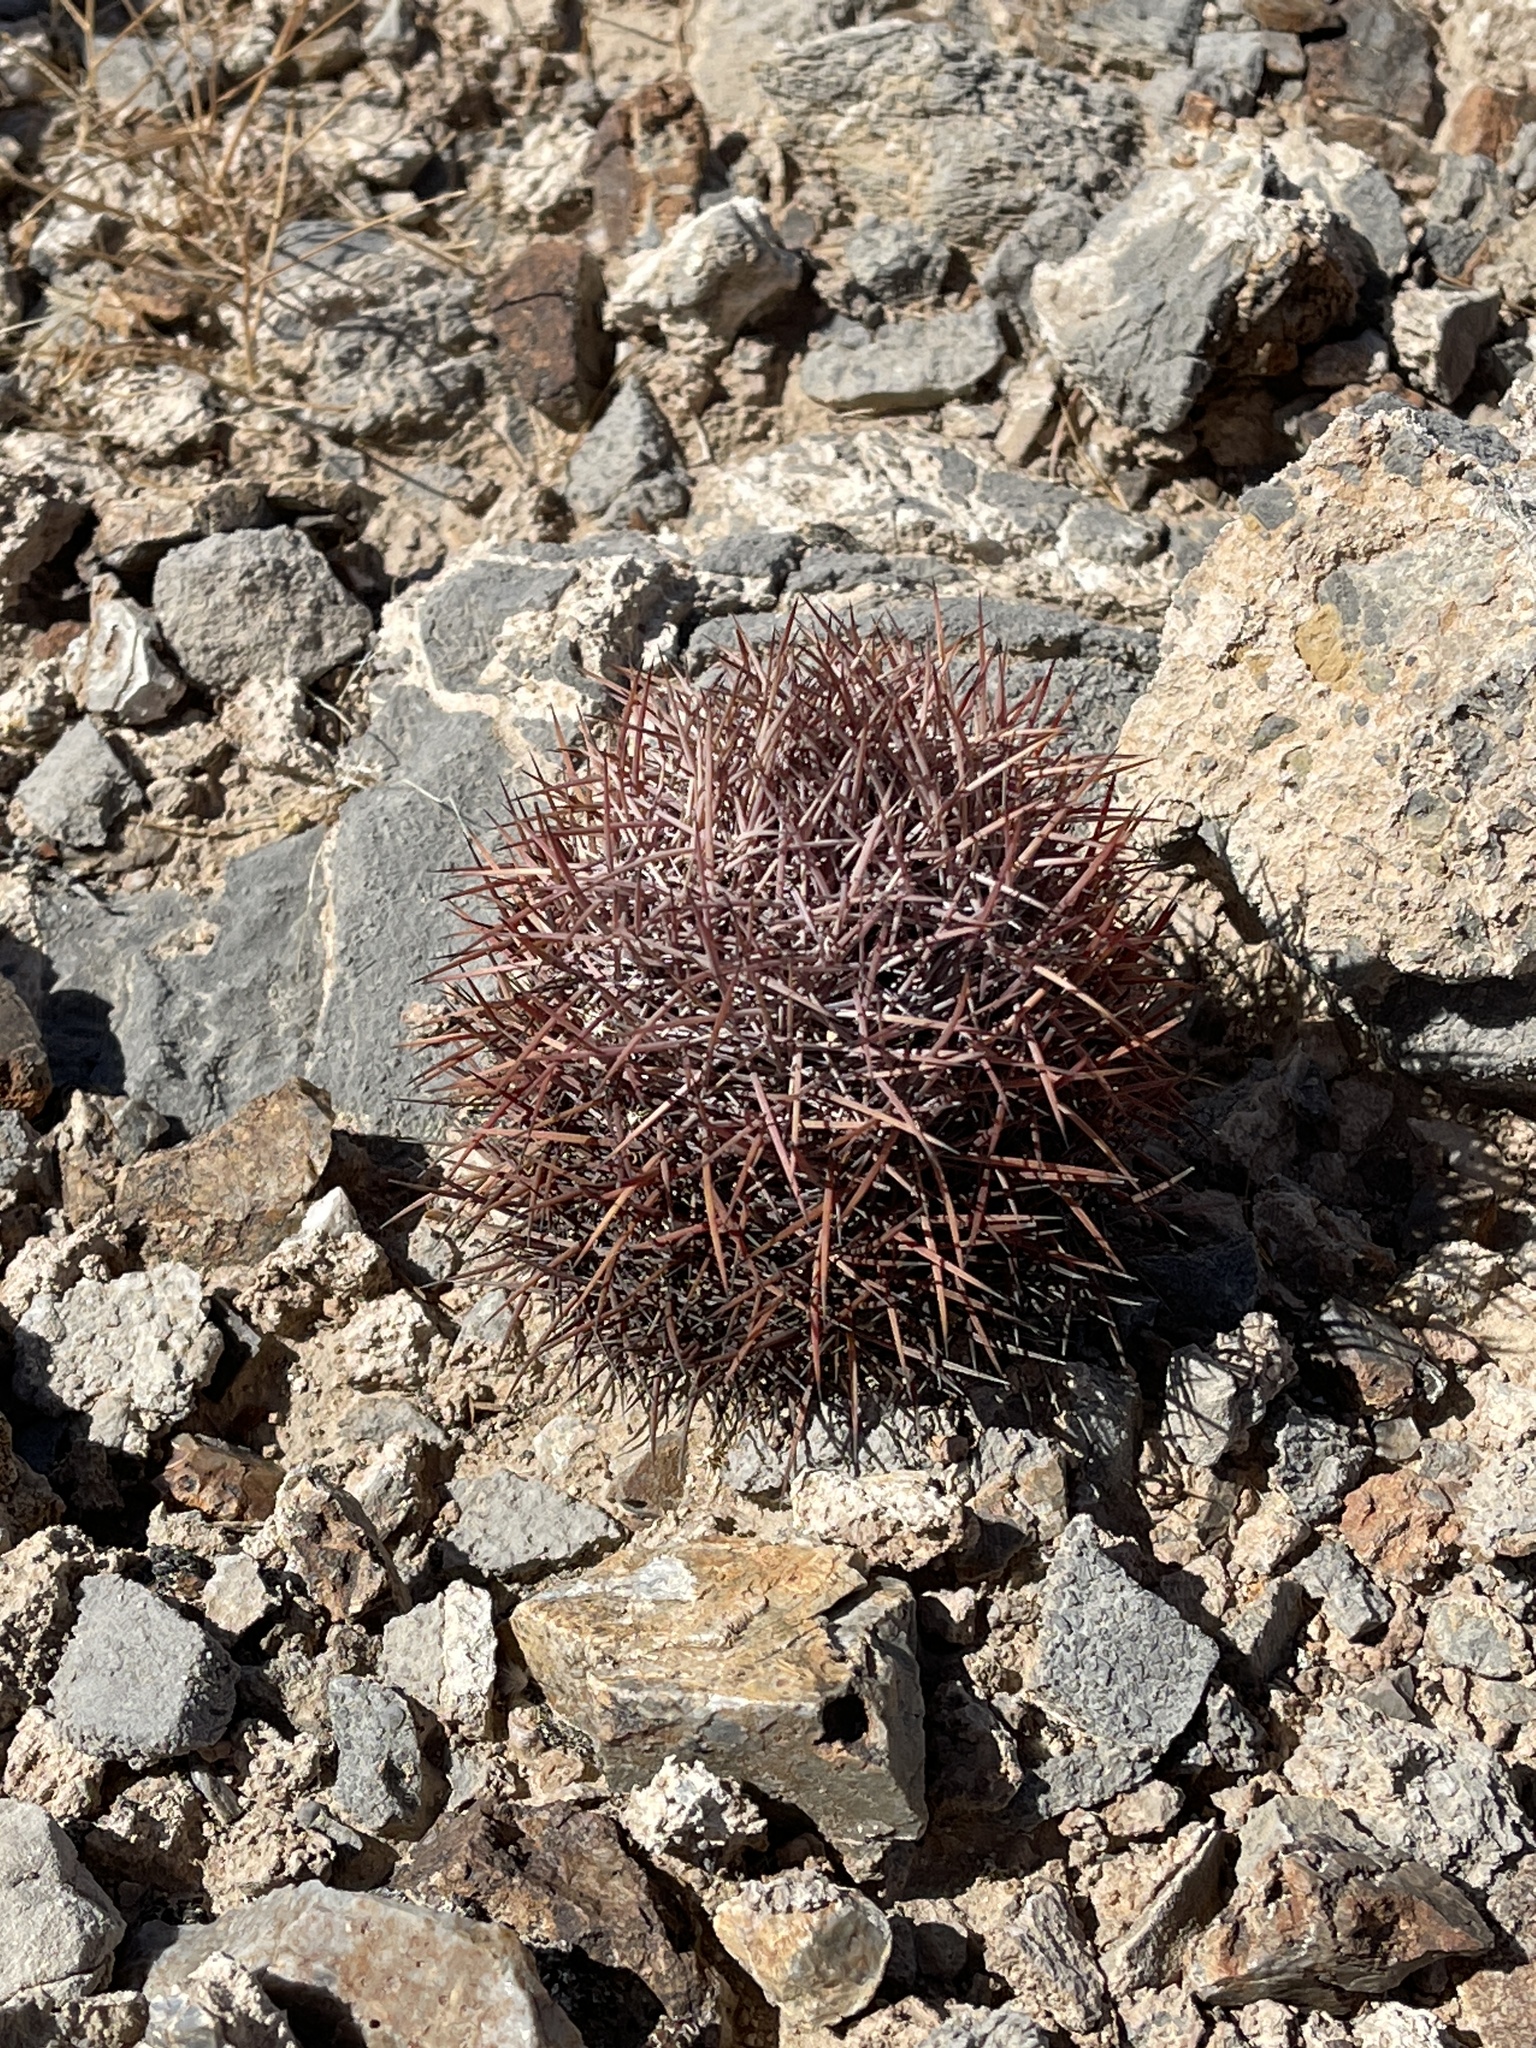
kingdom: Plantae
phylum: Tracheophyta
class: Magnoliopsida
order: Caryophyllales
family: Cactaceae
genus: Sclerocactus
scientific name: Sclerocactus johnsonii
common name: Eight-spine fishhook cactus
